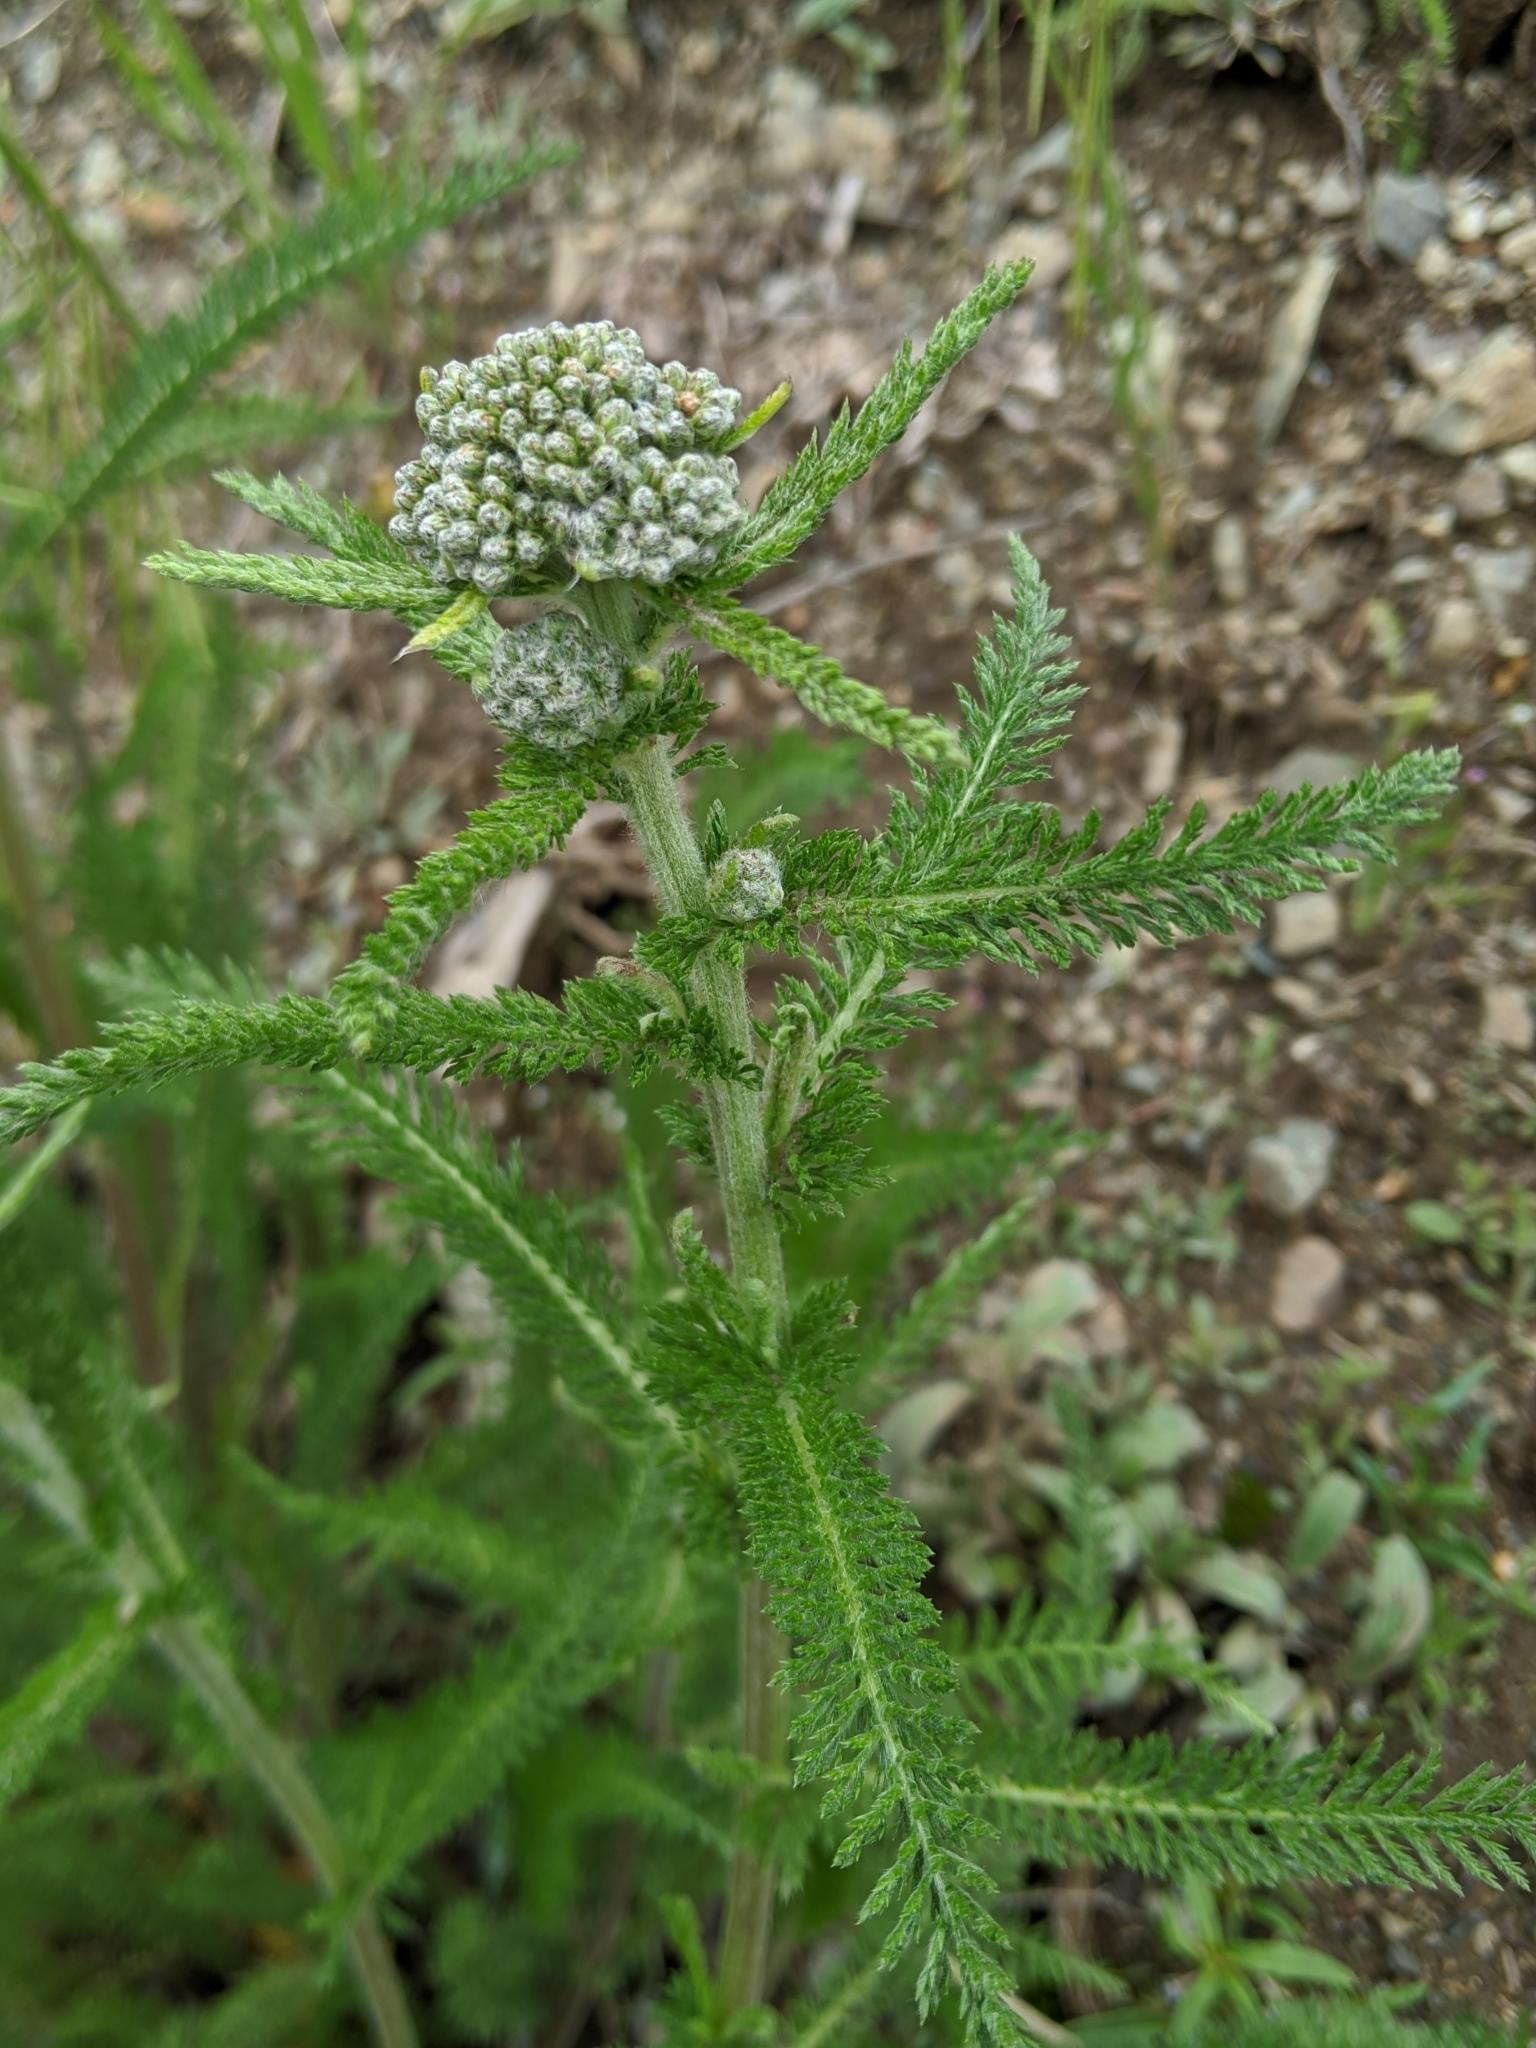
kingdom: Plantae
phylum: Tracheophyta
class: Magnoliopsida
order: Asterales
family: Asteraceae
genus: Achillea
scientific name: Achillea millefolium
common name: Yarrow
